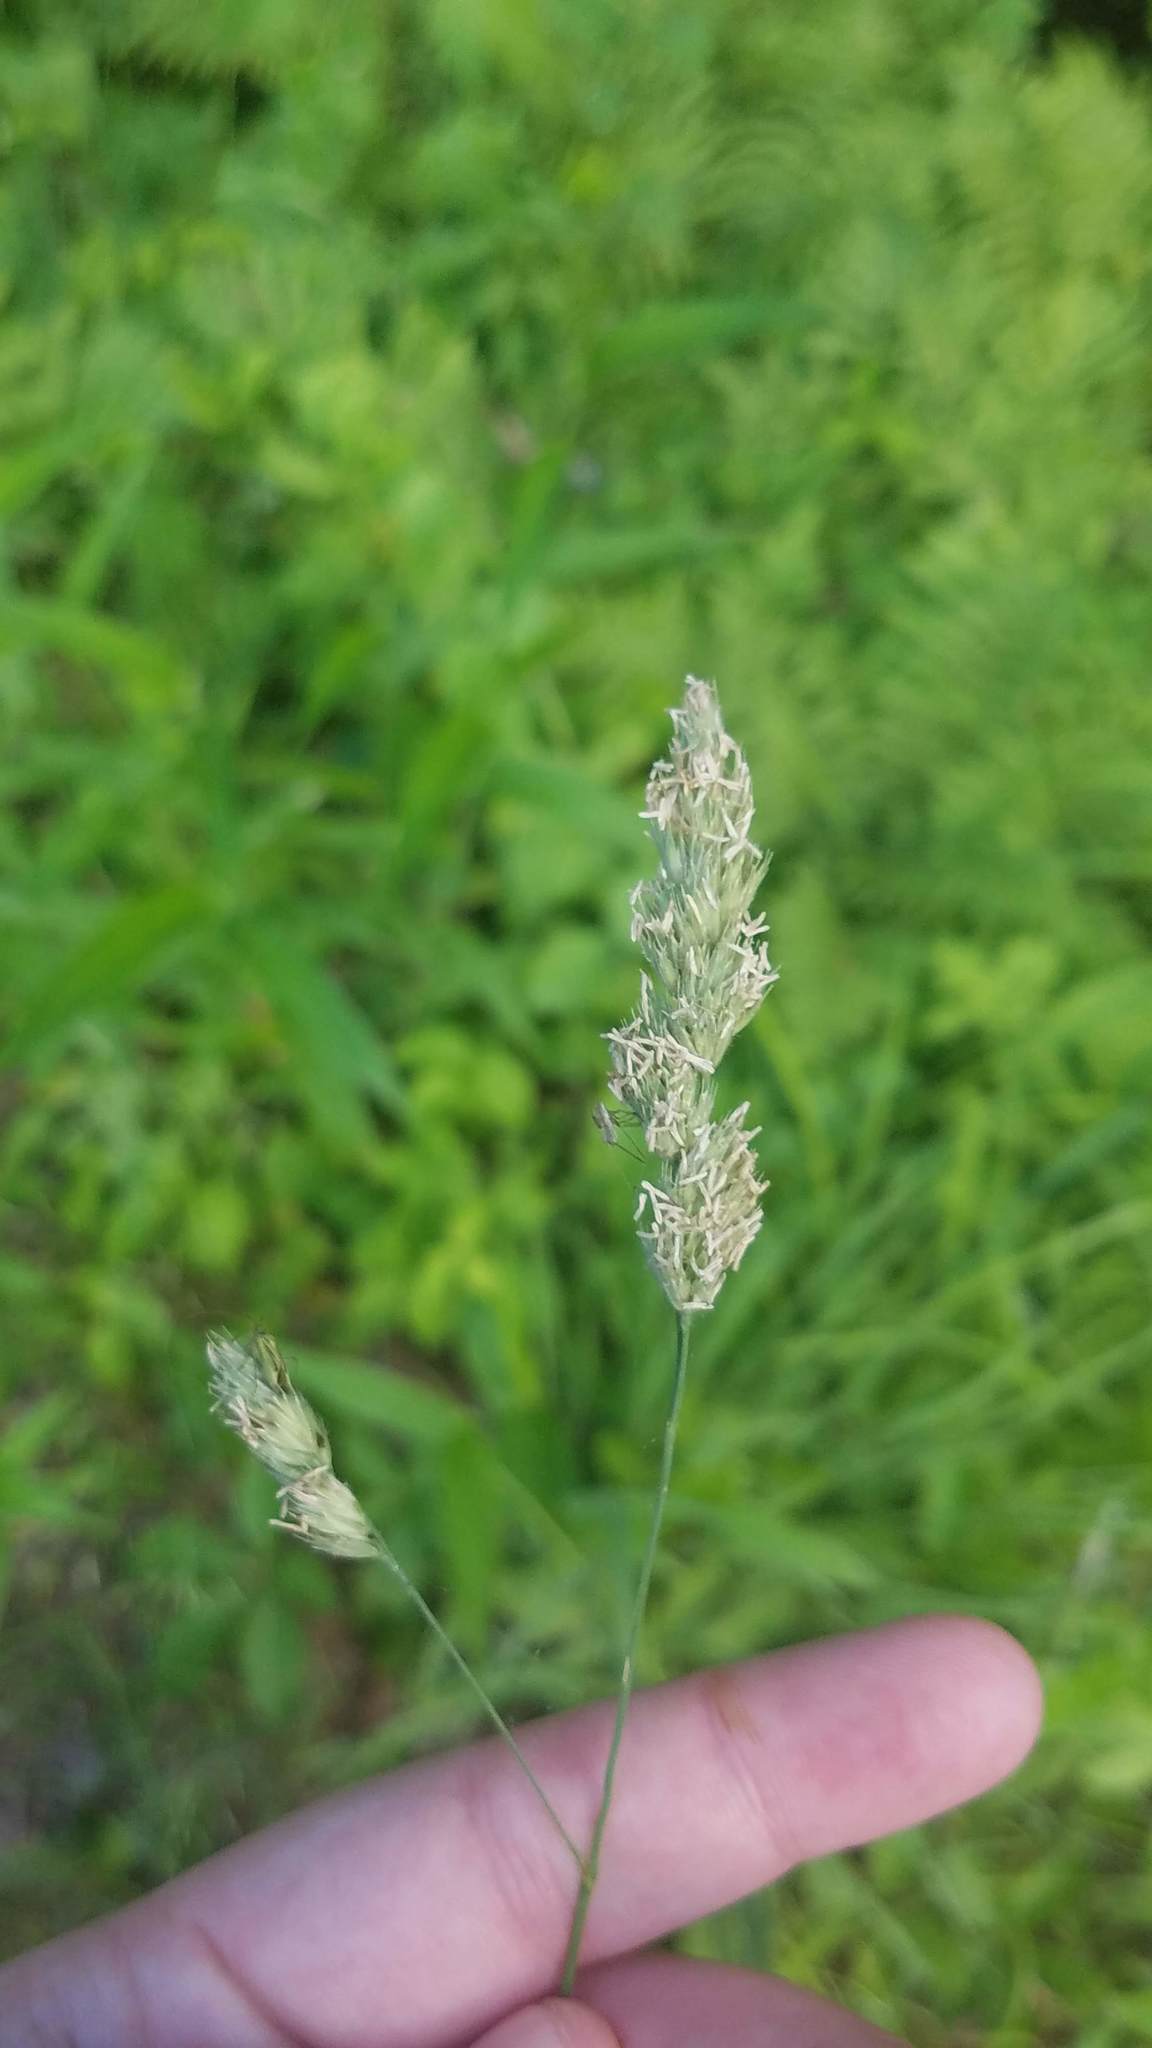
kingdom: Plantae
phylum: Tracheophyta
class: Liliopsida
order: Poales
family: Poaceae
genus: Dactylis
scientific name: Dactylis glomerata
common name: Orchardgrass
